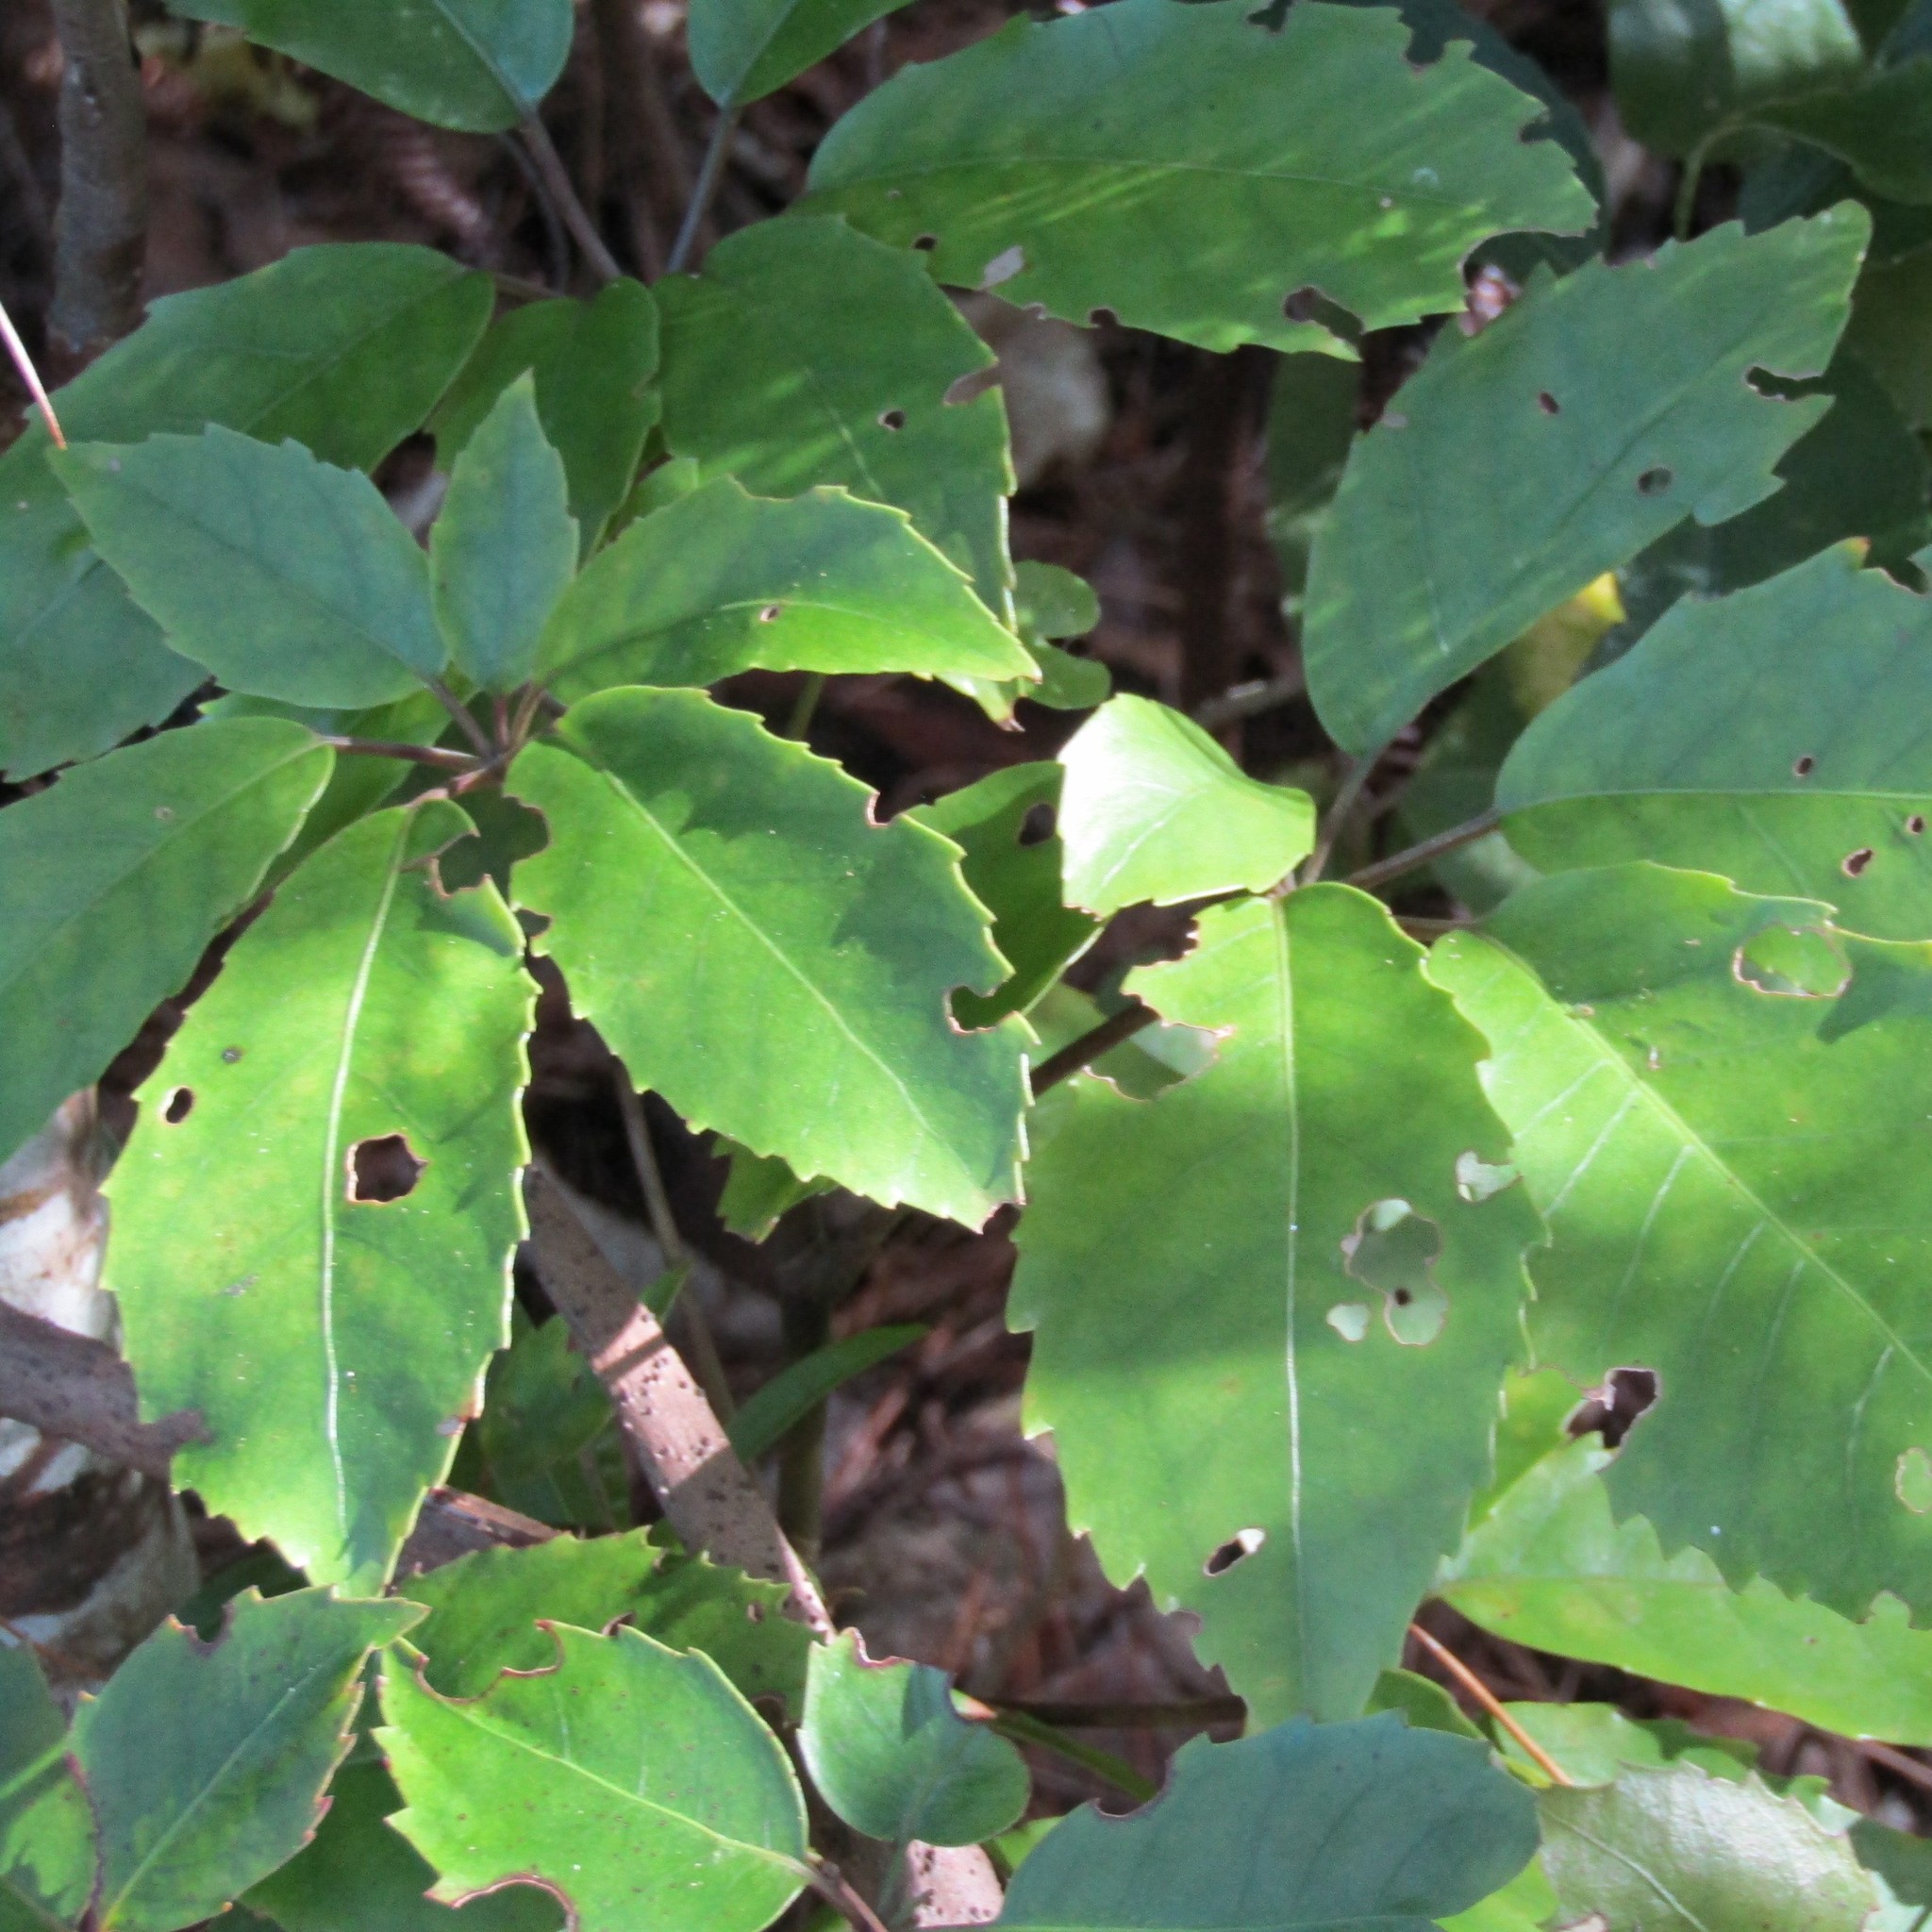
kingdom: Plantae
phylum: Tracheophyta
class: Magnoliopsida
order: Apiales
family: Araliaceae
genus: Neopanax
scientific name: Neopanax arboreus
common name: Five-fingers
